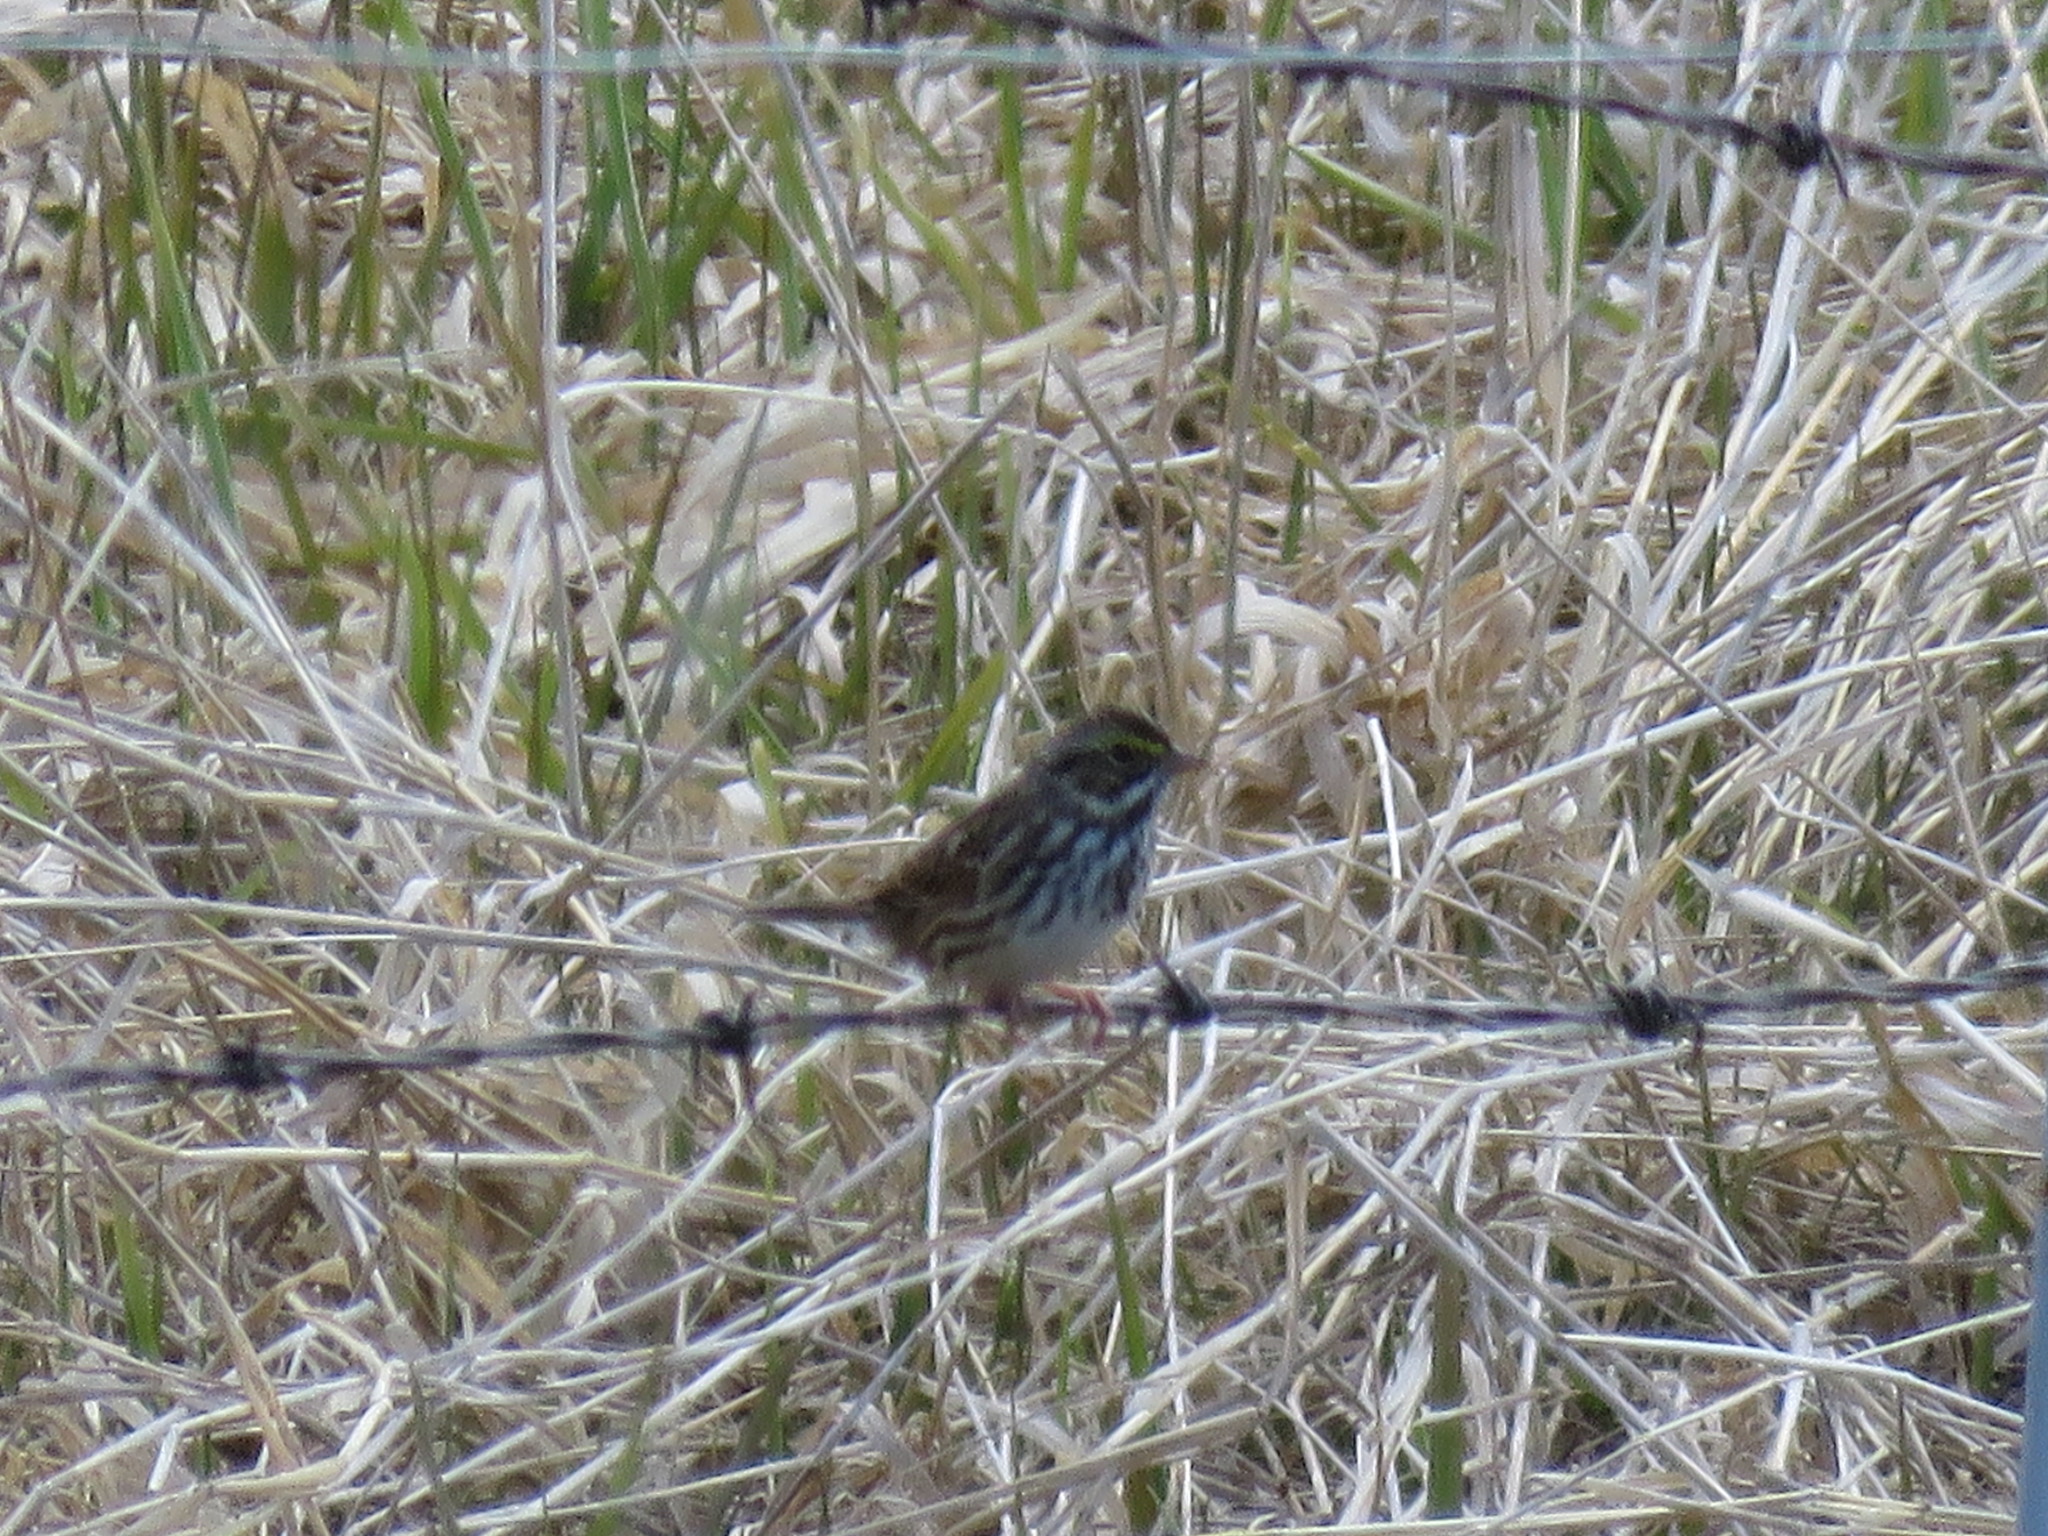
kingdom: Animalia
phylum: Chordata
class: Aves
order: Passeriformes
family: Passerellidae
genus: Passerculus
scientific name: Passerculus sandwichensis
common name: Savannah sparrow
